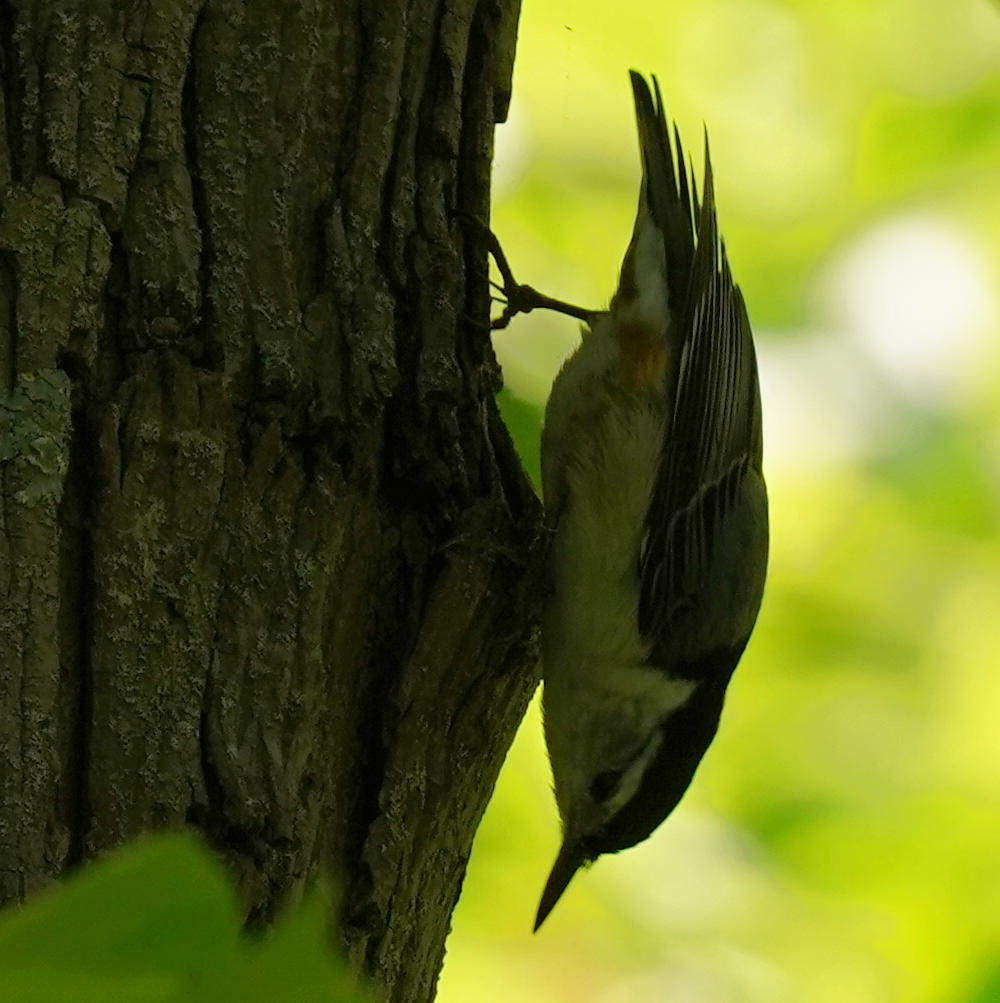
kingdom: Animalia
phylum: Chordata
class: Aves
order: Passeriformes
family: Sittidae
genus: Sitta
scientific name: Sitta carolinensis
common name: White-breasted nuthatch
